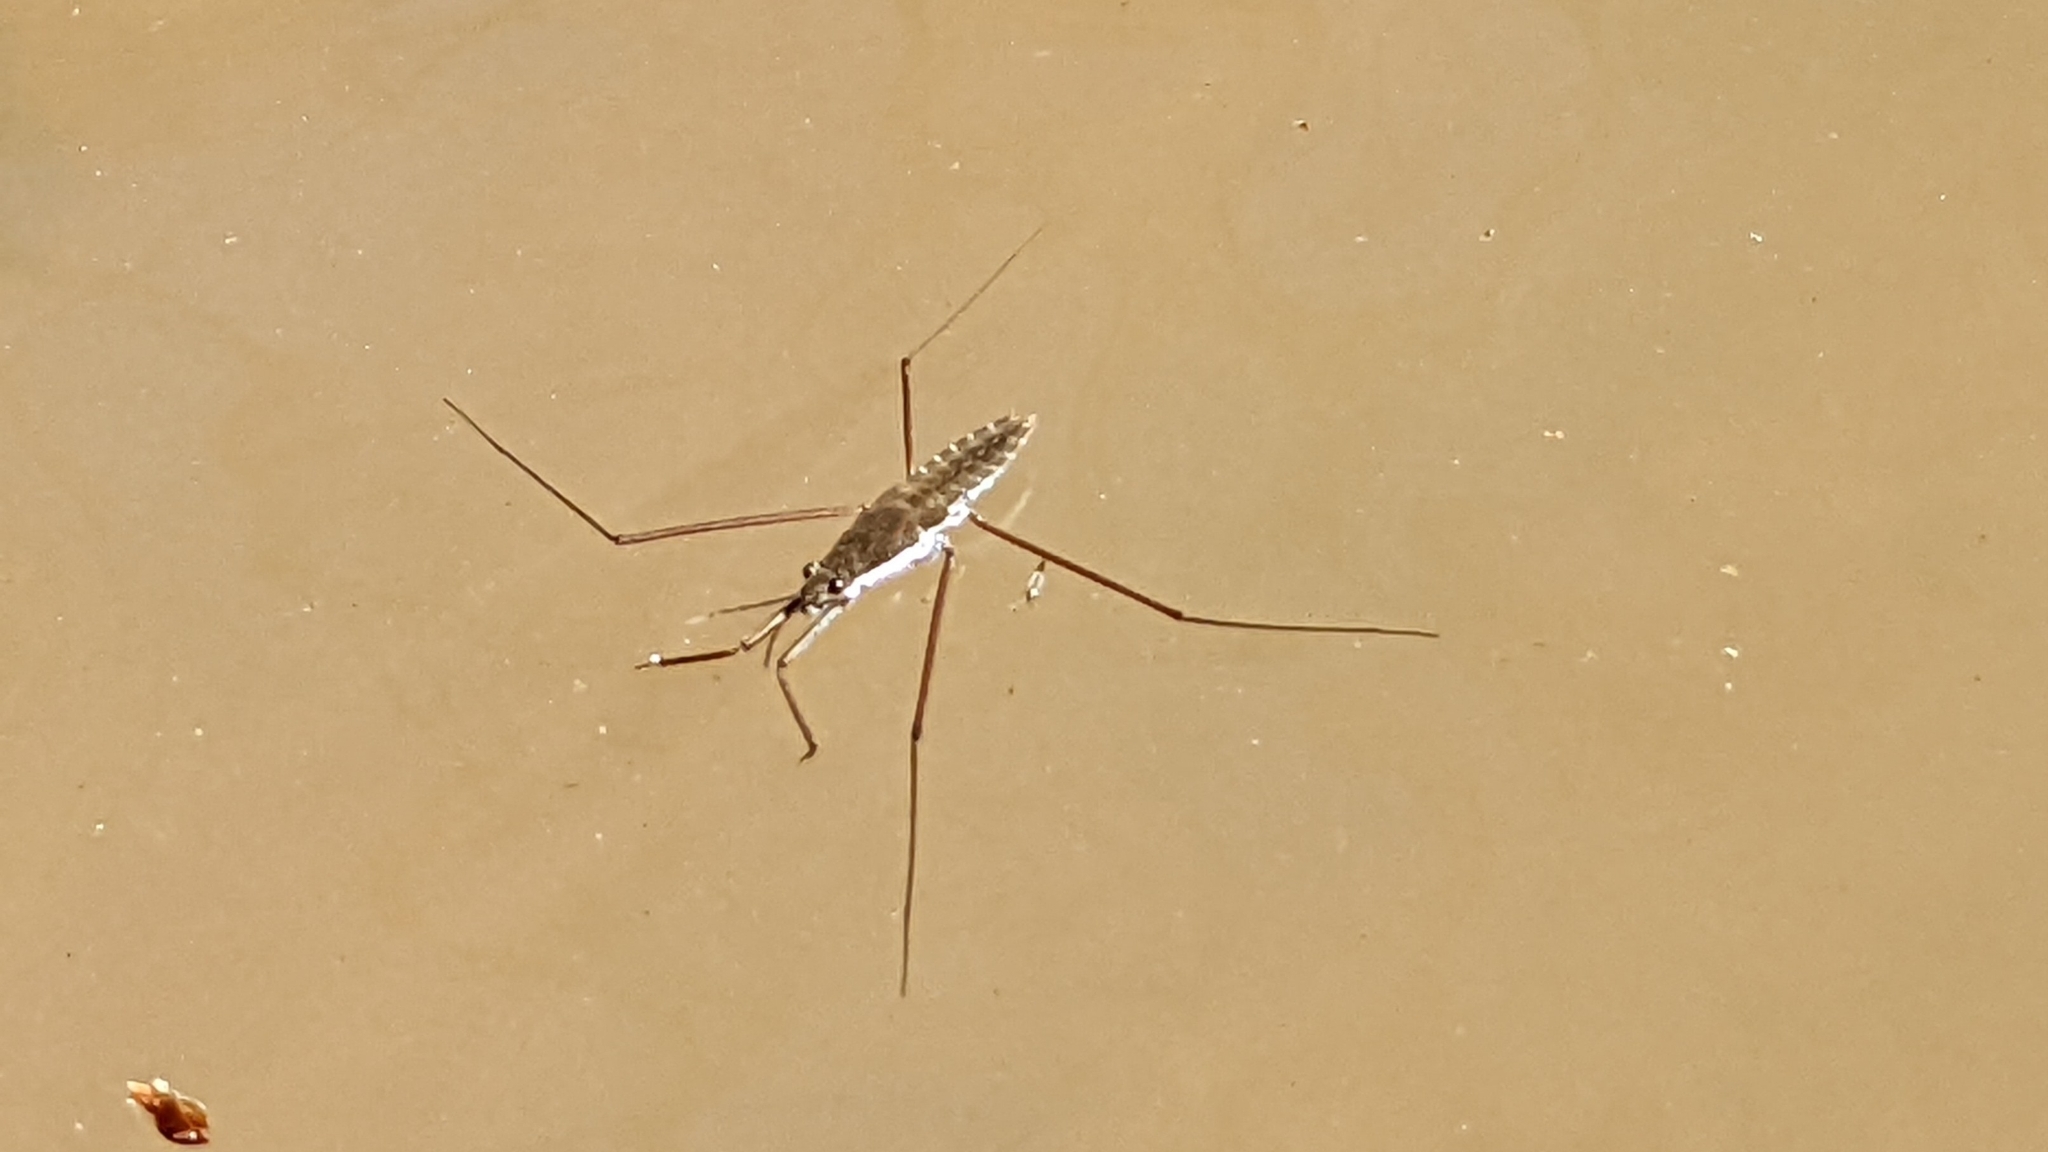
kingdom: Animalia
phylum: Arthropoda
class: Insecta
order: Hemiptera
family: Gerridae
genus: Aquarius
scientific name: Aquarius remigis
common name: Common water strider
